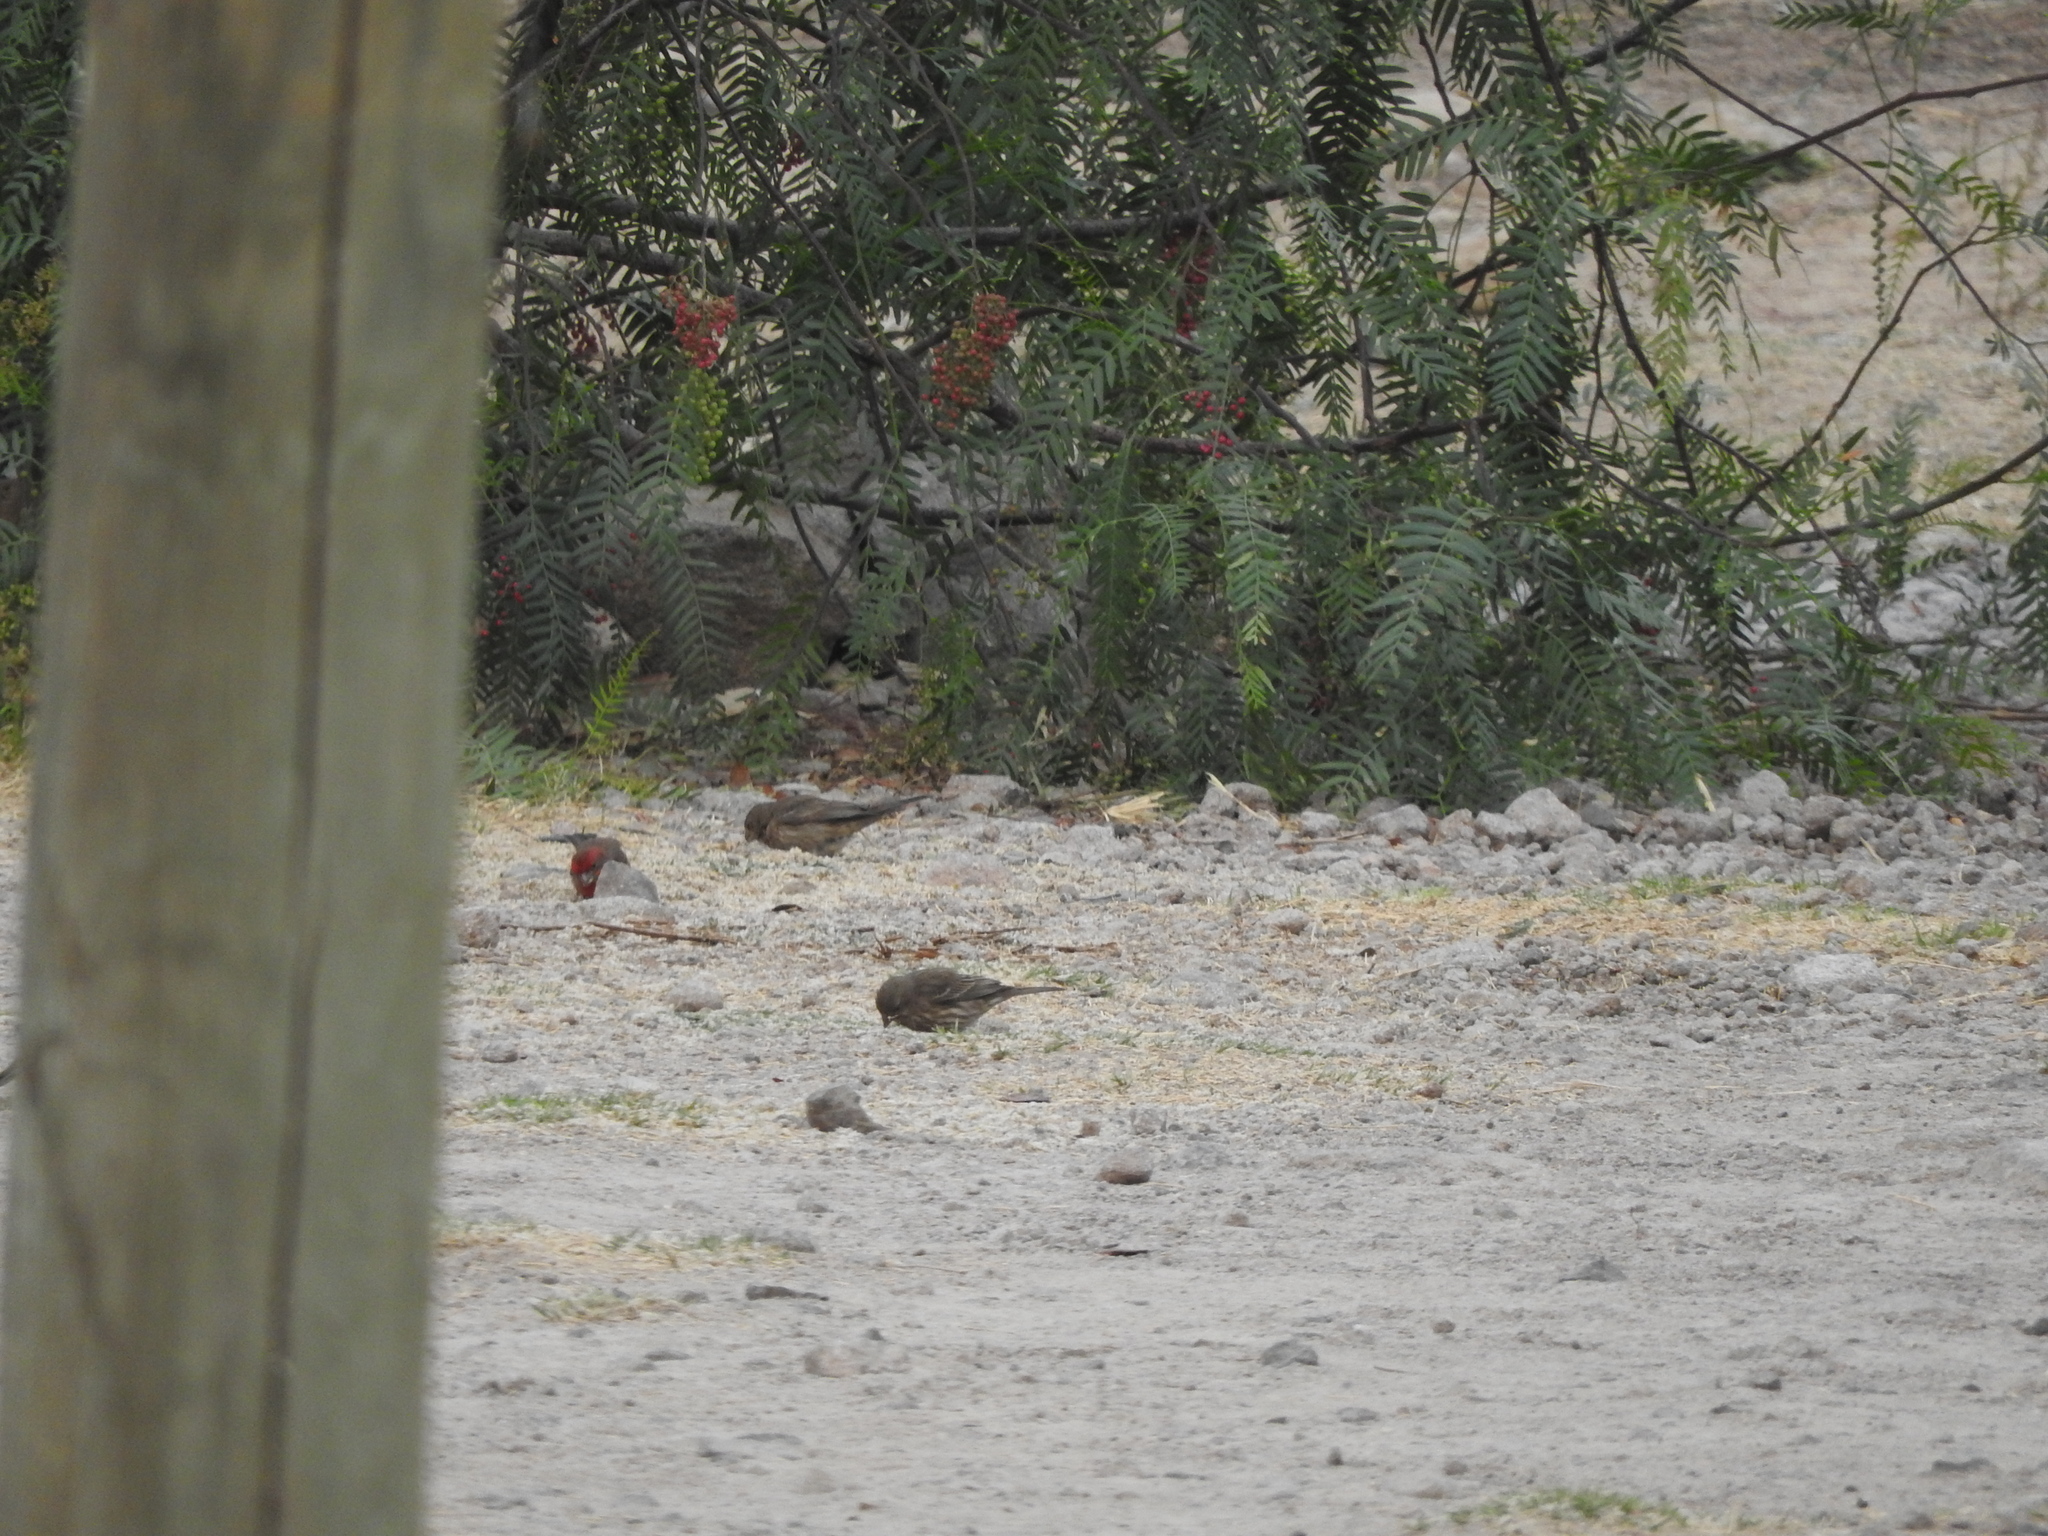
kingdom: Animalia
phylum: Chordata
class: Aves
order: Passeriformes
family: Fringillidae
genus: Haemorhous
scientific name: Haemorhous mexicanus
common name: House finch
